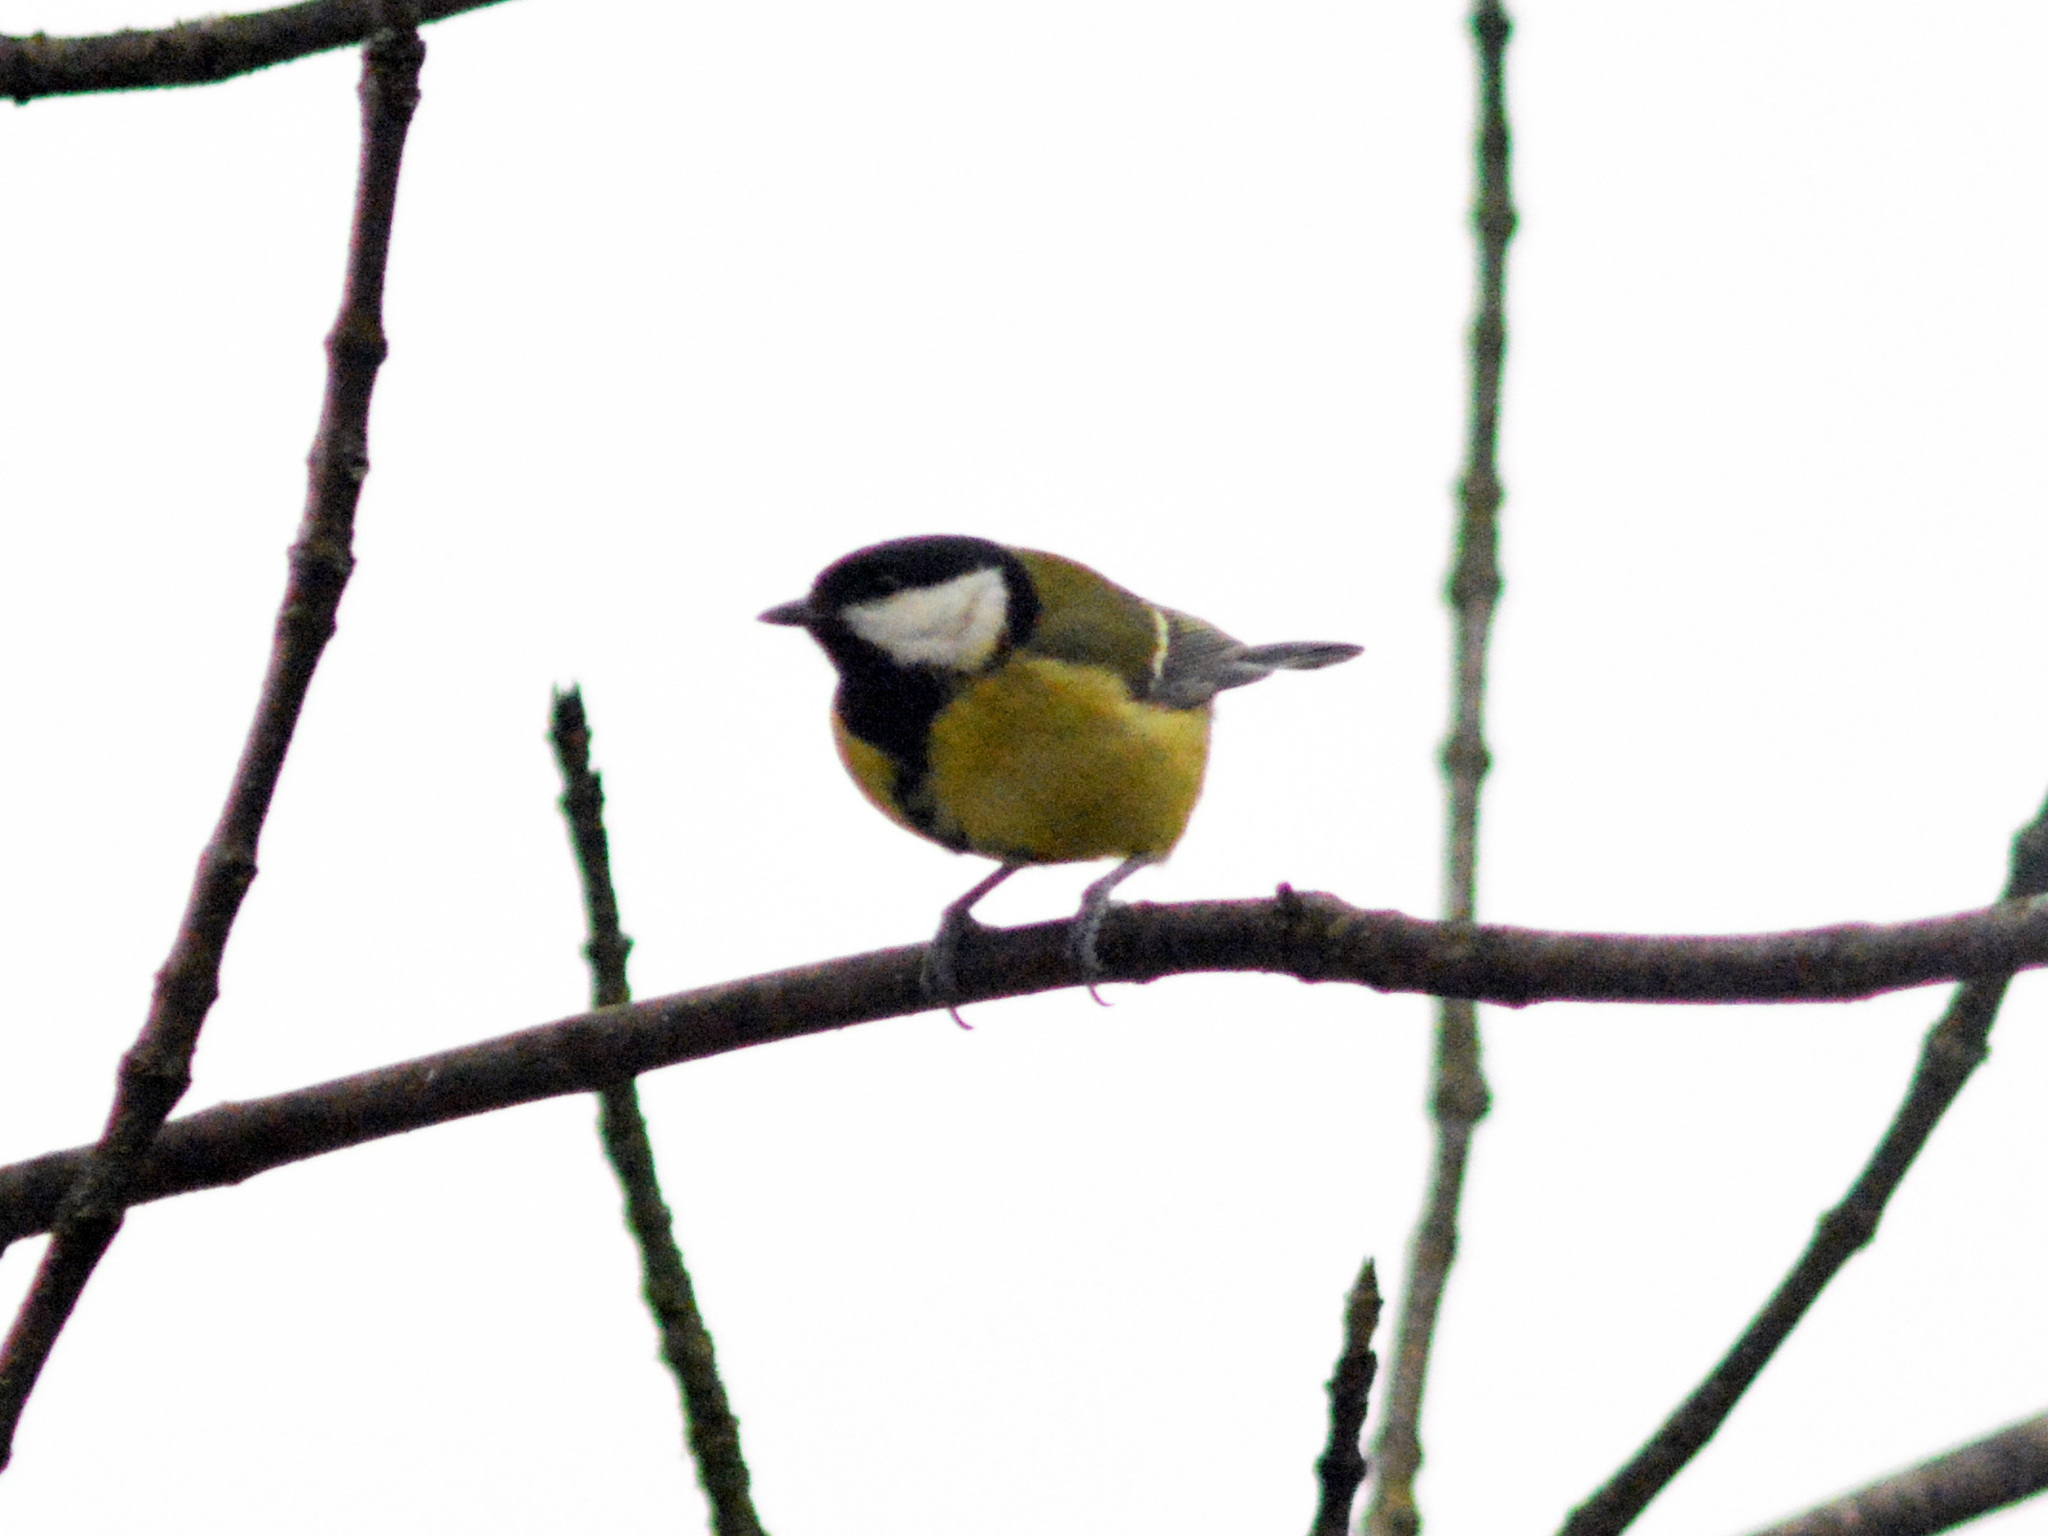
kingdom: Animalia
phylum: Chordata
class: Aves
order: Passeriformes
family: Paridae
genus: Parus
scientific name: Parus major
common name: Great tit
